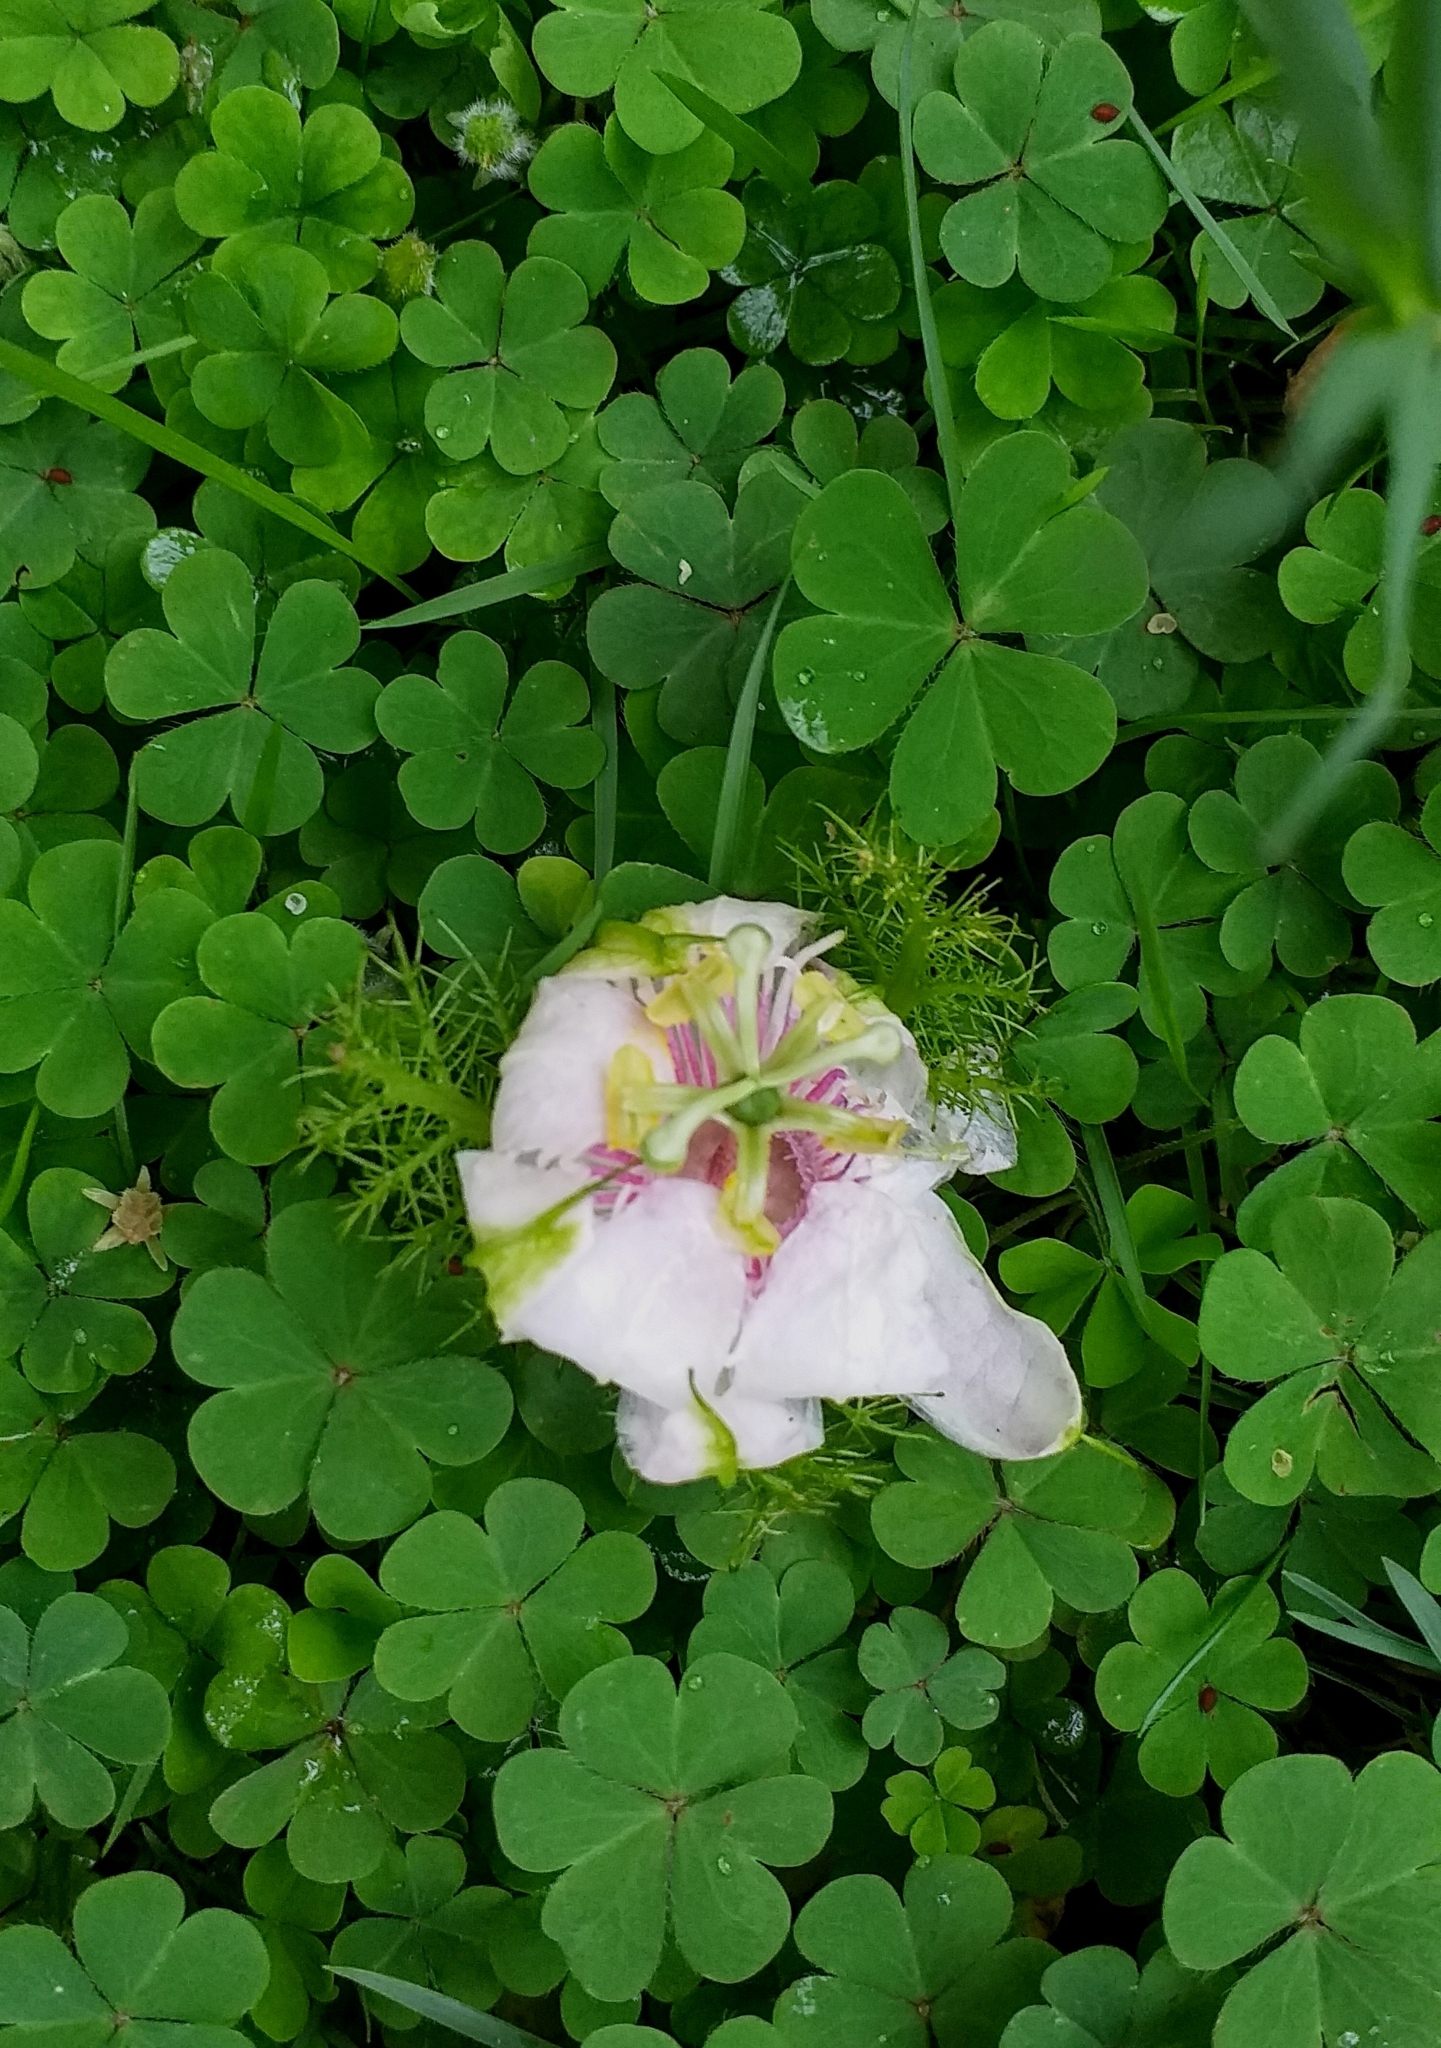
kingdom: Plantae
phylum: Tracheophyta
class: Magnoliopsida
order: Malpighiales
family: Passifloraceae
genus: Passiflora
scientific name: Passiflora foetida
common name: Fetid passionflower
